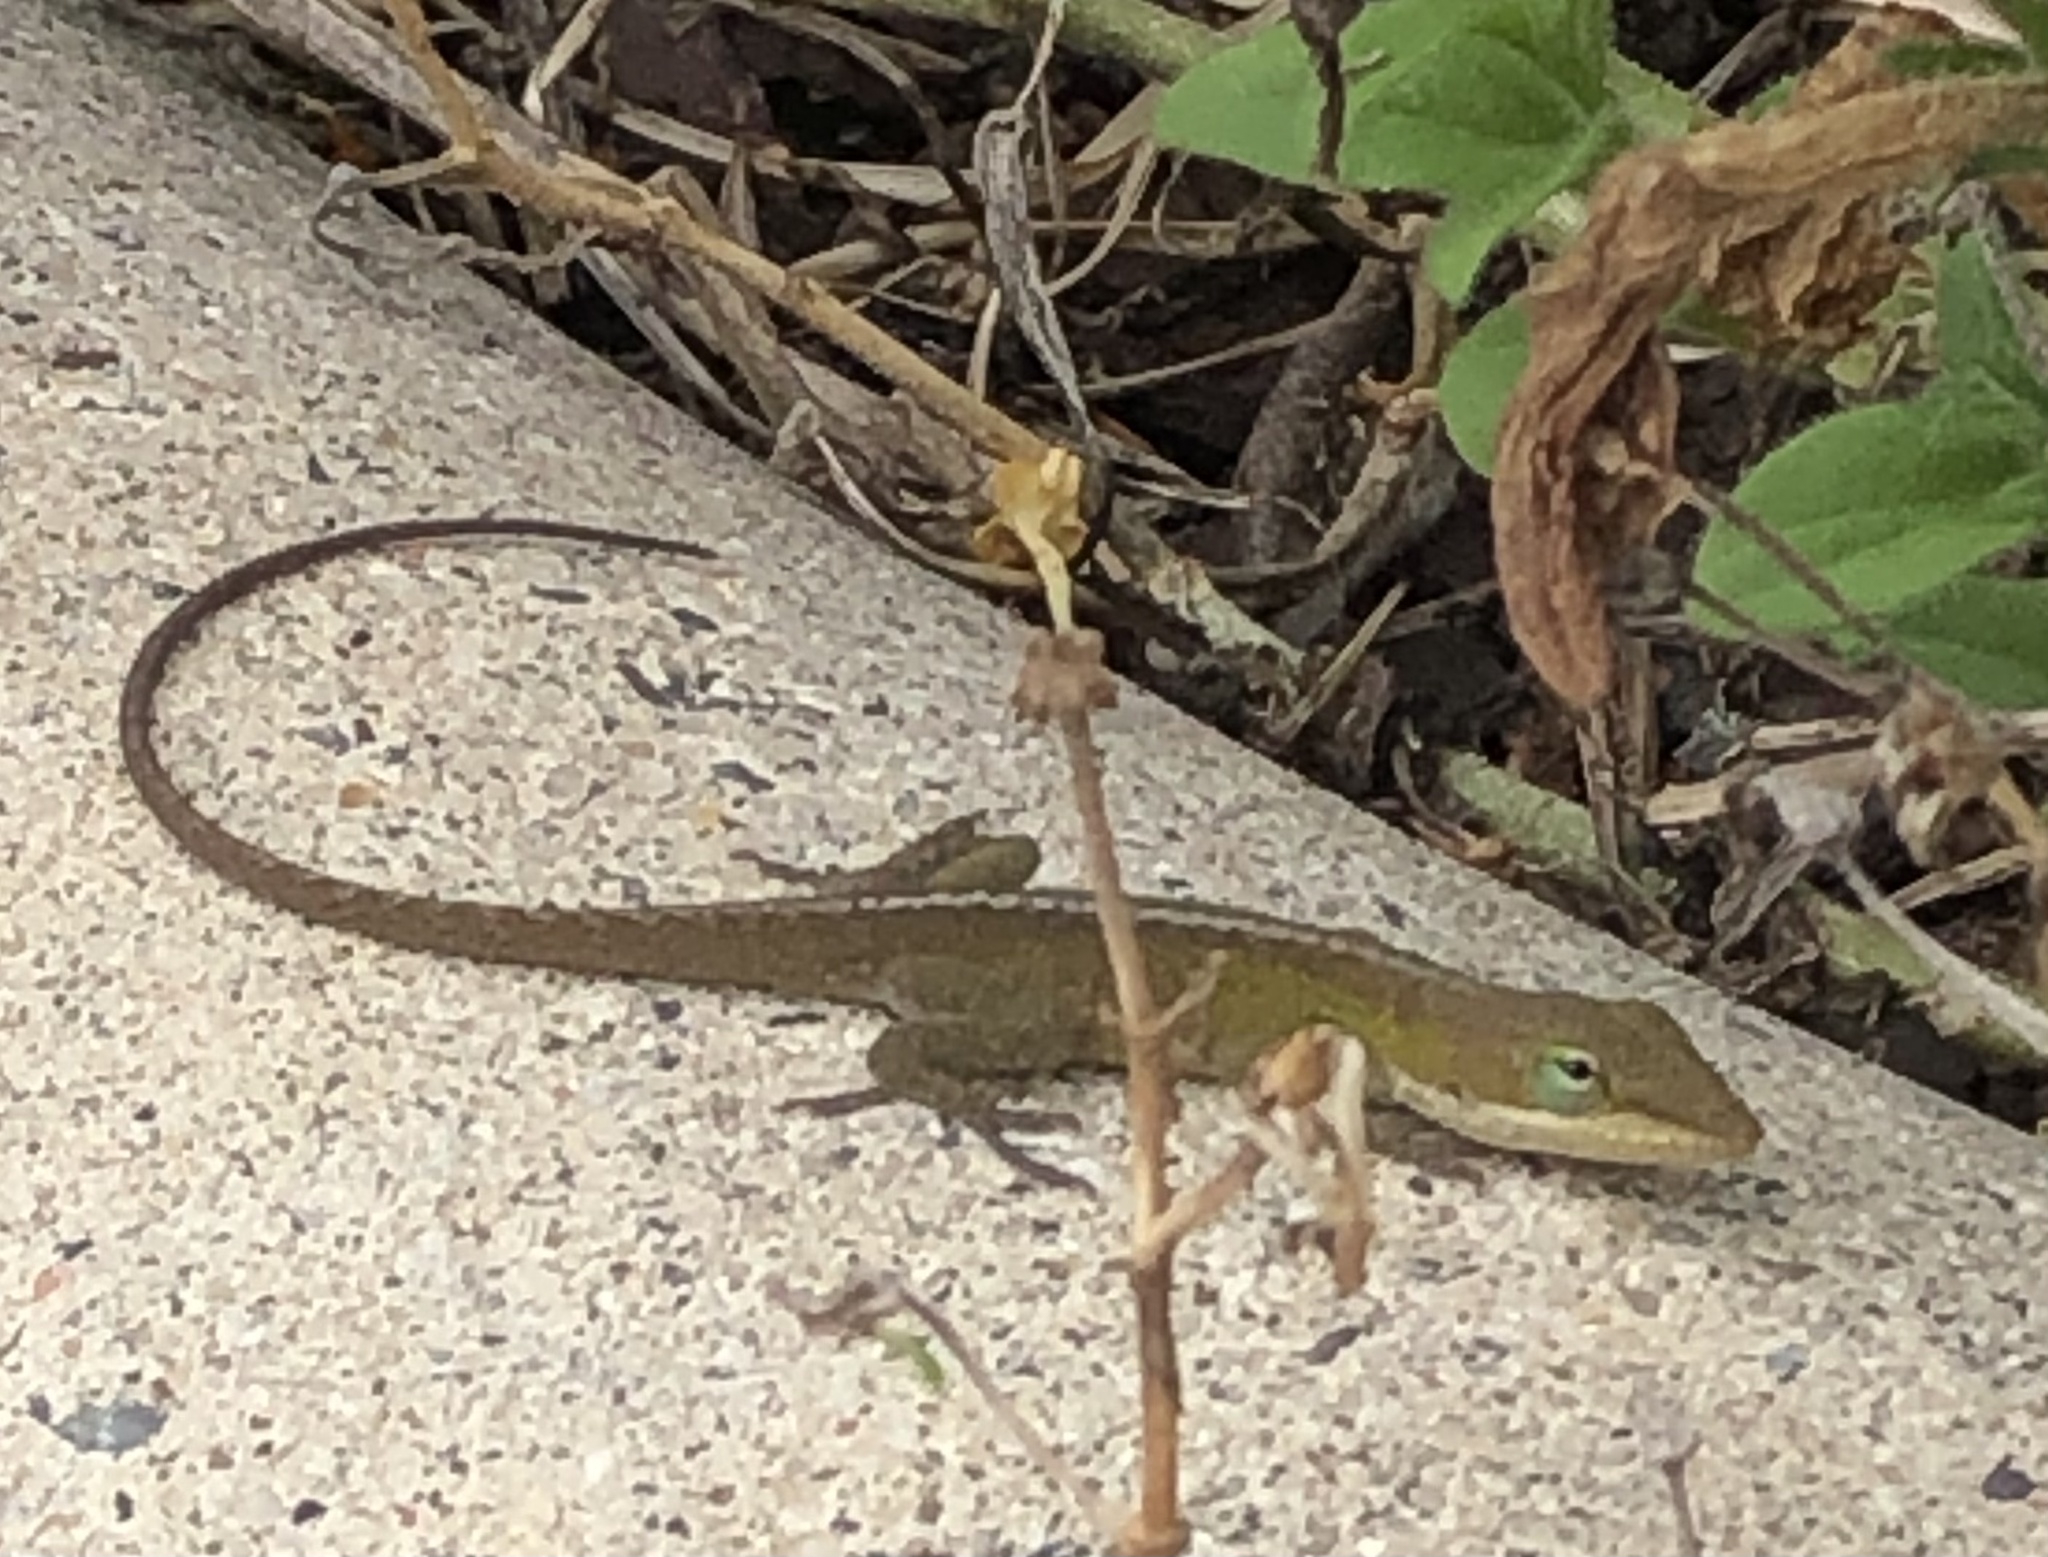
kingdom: Animalia
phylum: Chordata
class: Squamata
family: Dactyloidae
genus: Anolis
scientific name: Anolis carolinensis
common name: Green anole
